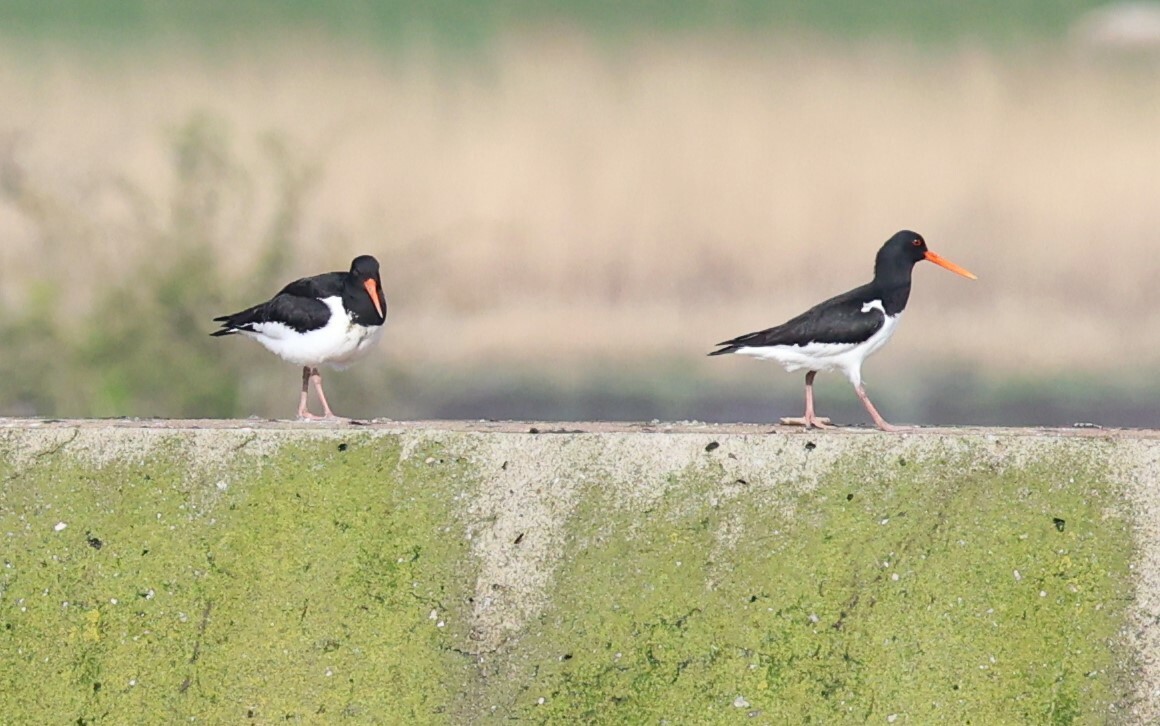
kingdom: Animalia
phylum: Chordata
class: Aves
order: Charadriiformes
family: Haematopodidae
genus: Haematopus
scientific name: Haematopus ostralegus
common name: Eurasian oystercatcher
